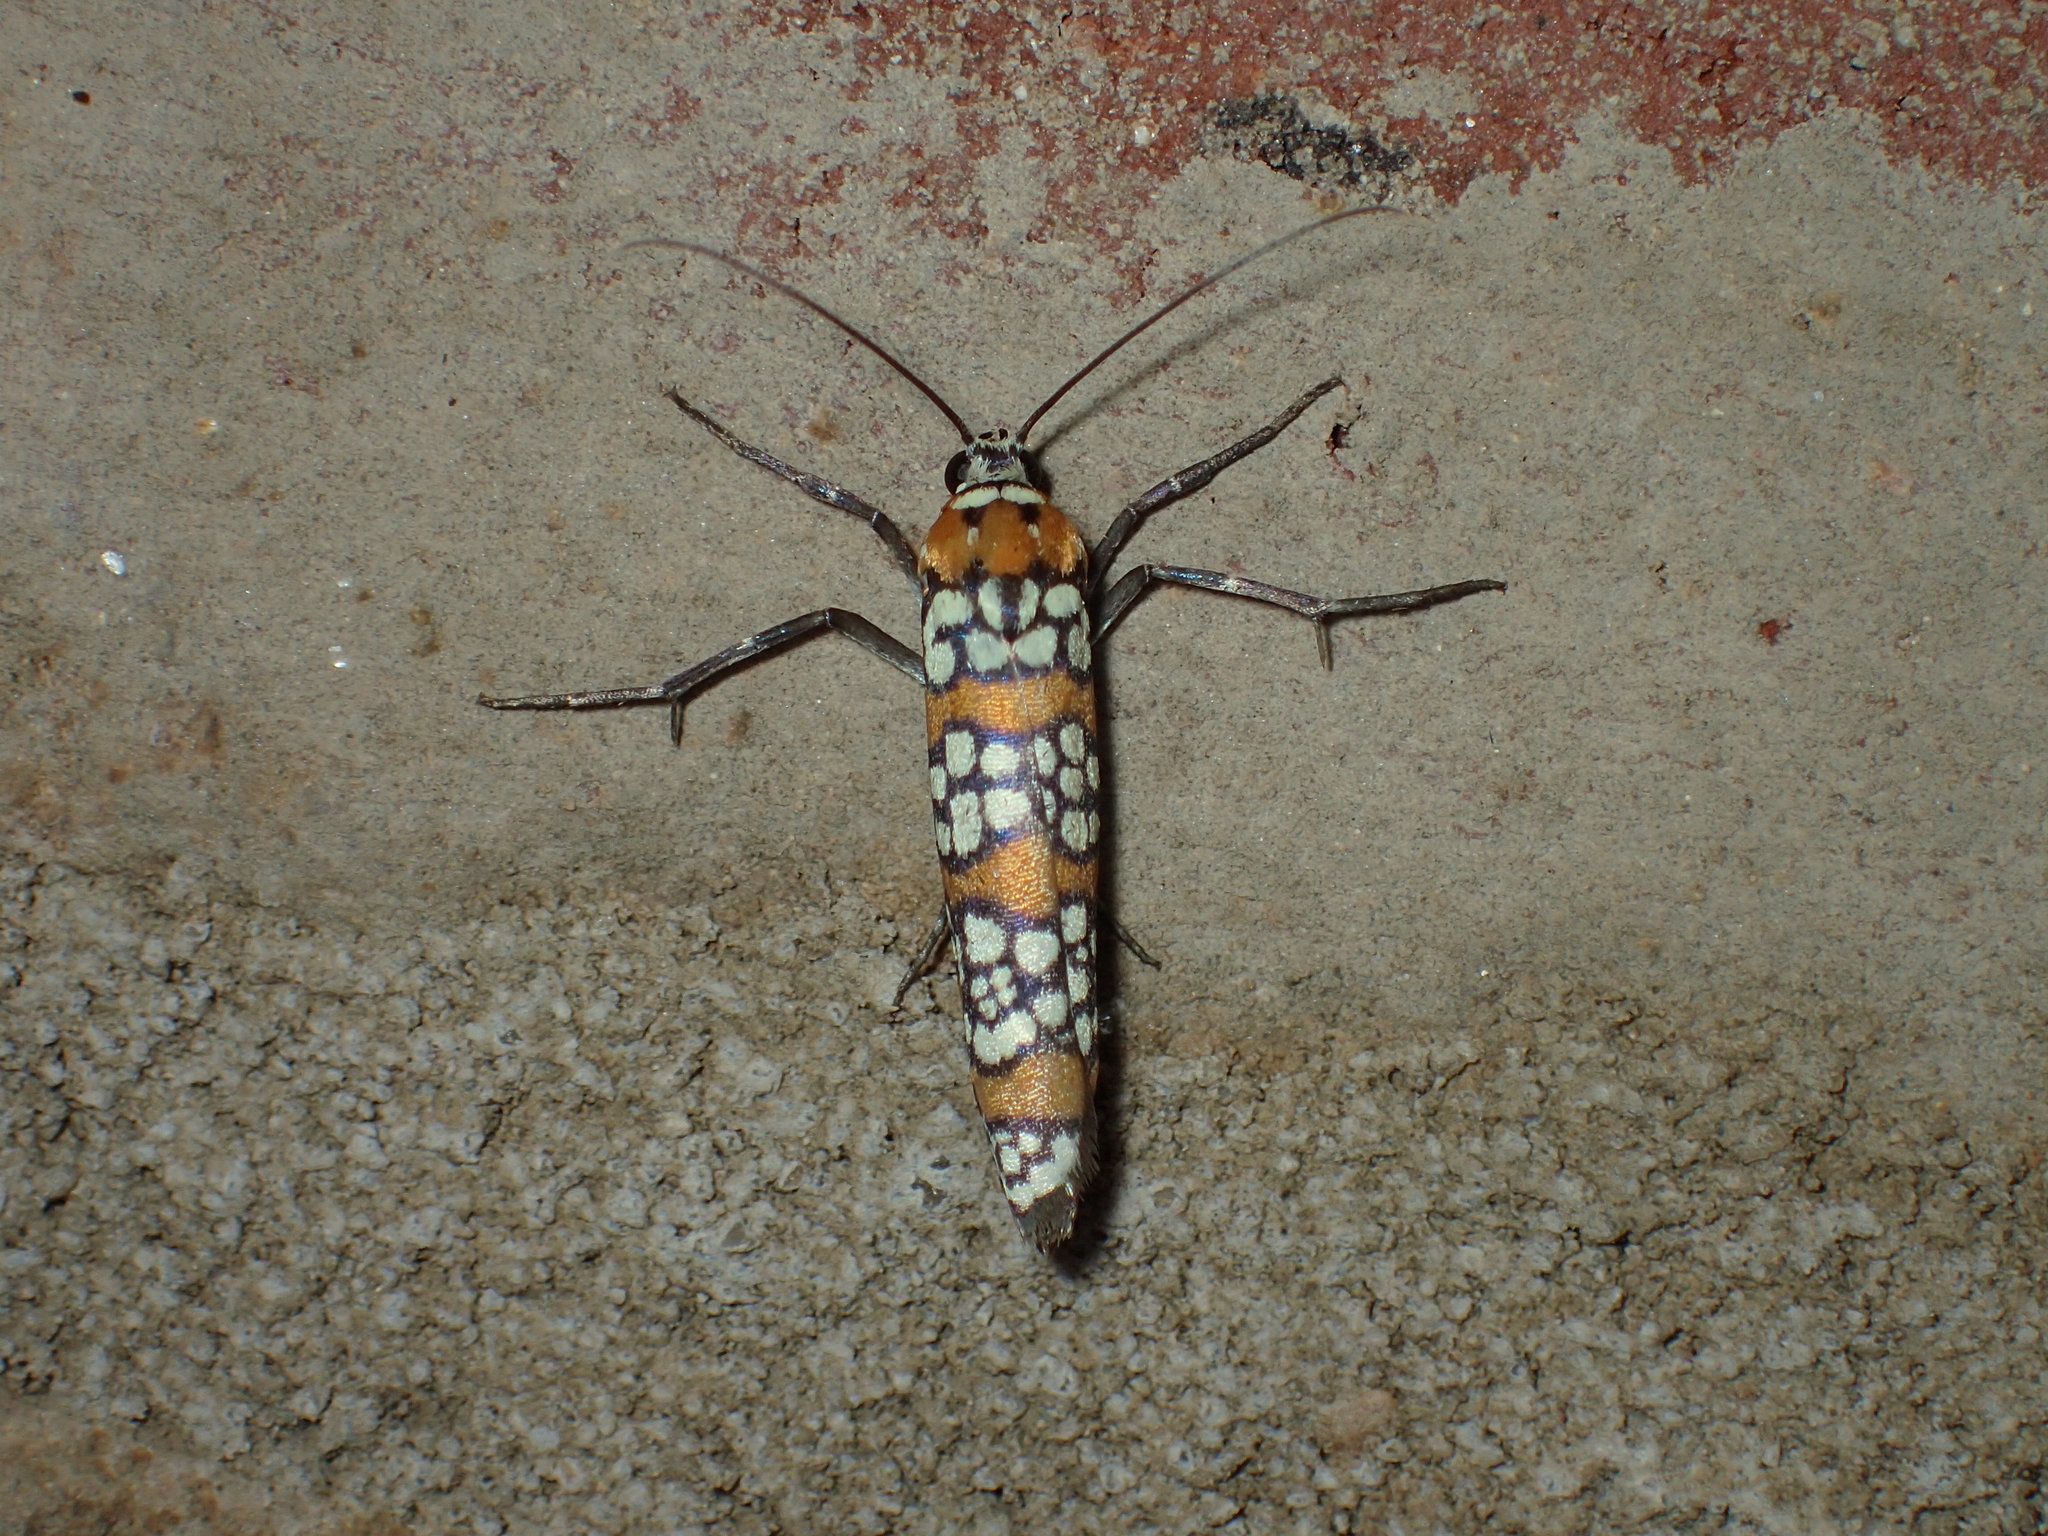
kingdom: Animalia
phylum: Arthropoda
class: Insecta
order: Lepidoptera
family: Attevidae
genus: Atteva
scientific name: Atteva punctella
